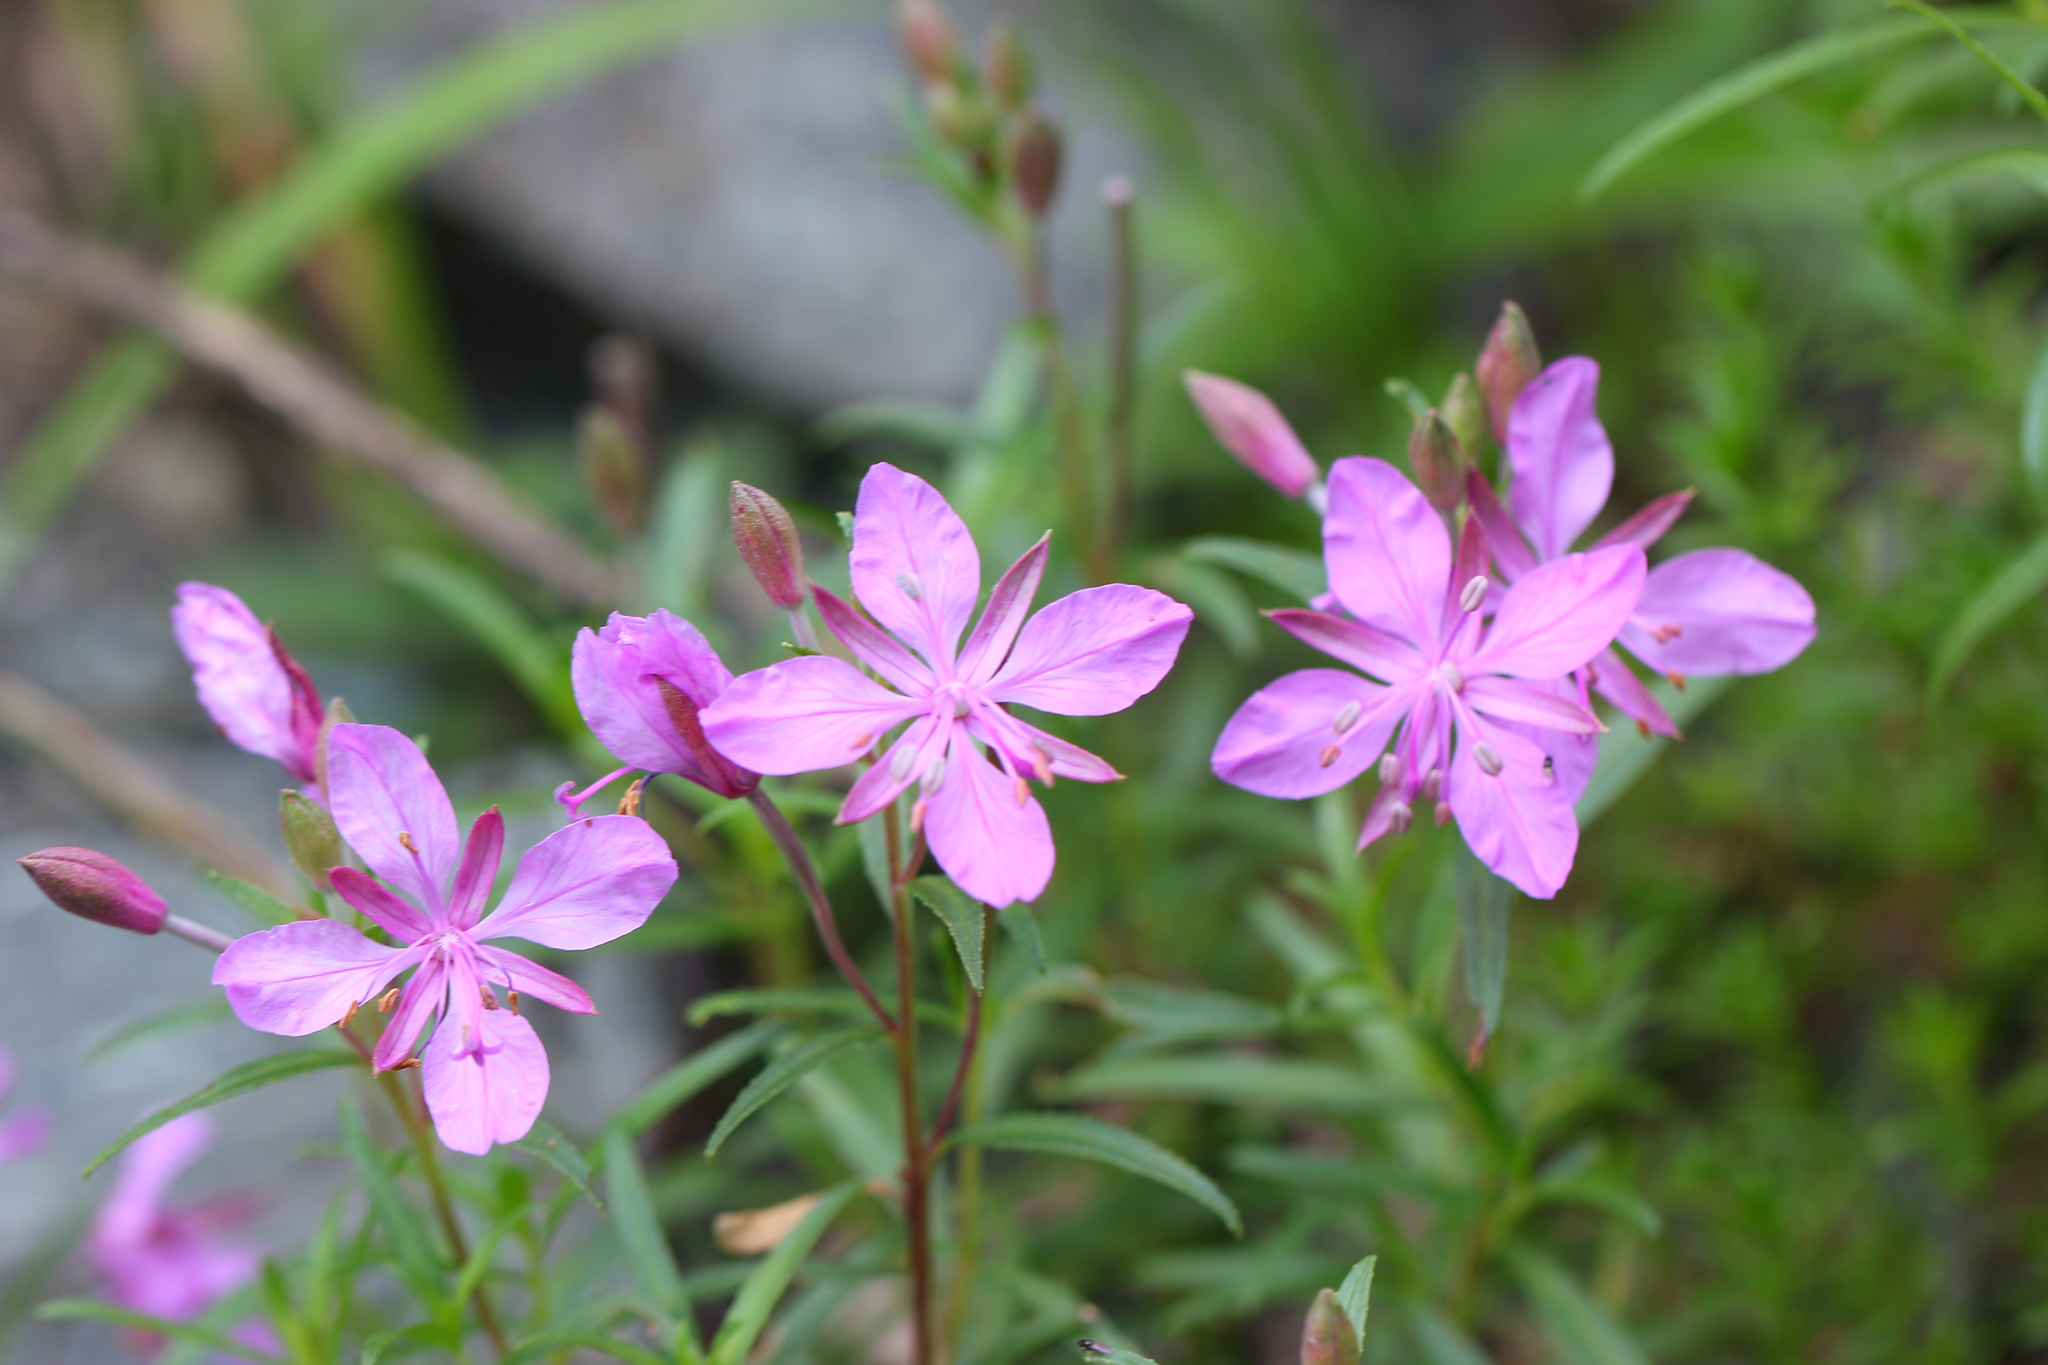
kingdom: Plantae
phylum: Tracheophyta
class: Magnoliopsida
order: Myrtales
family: Onagraceae
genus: Chamaenerion
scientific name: Chamaenerion colchicum
